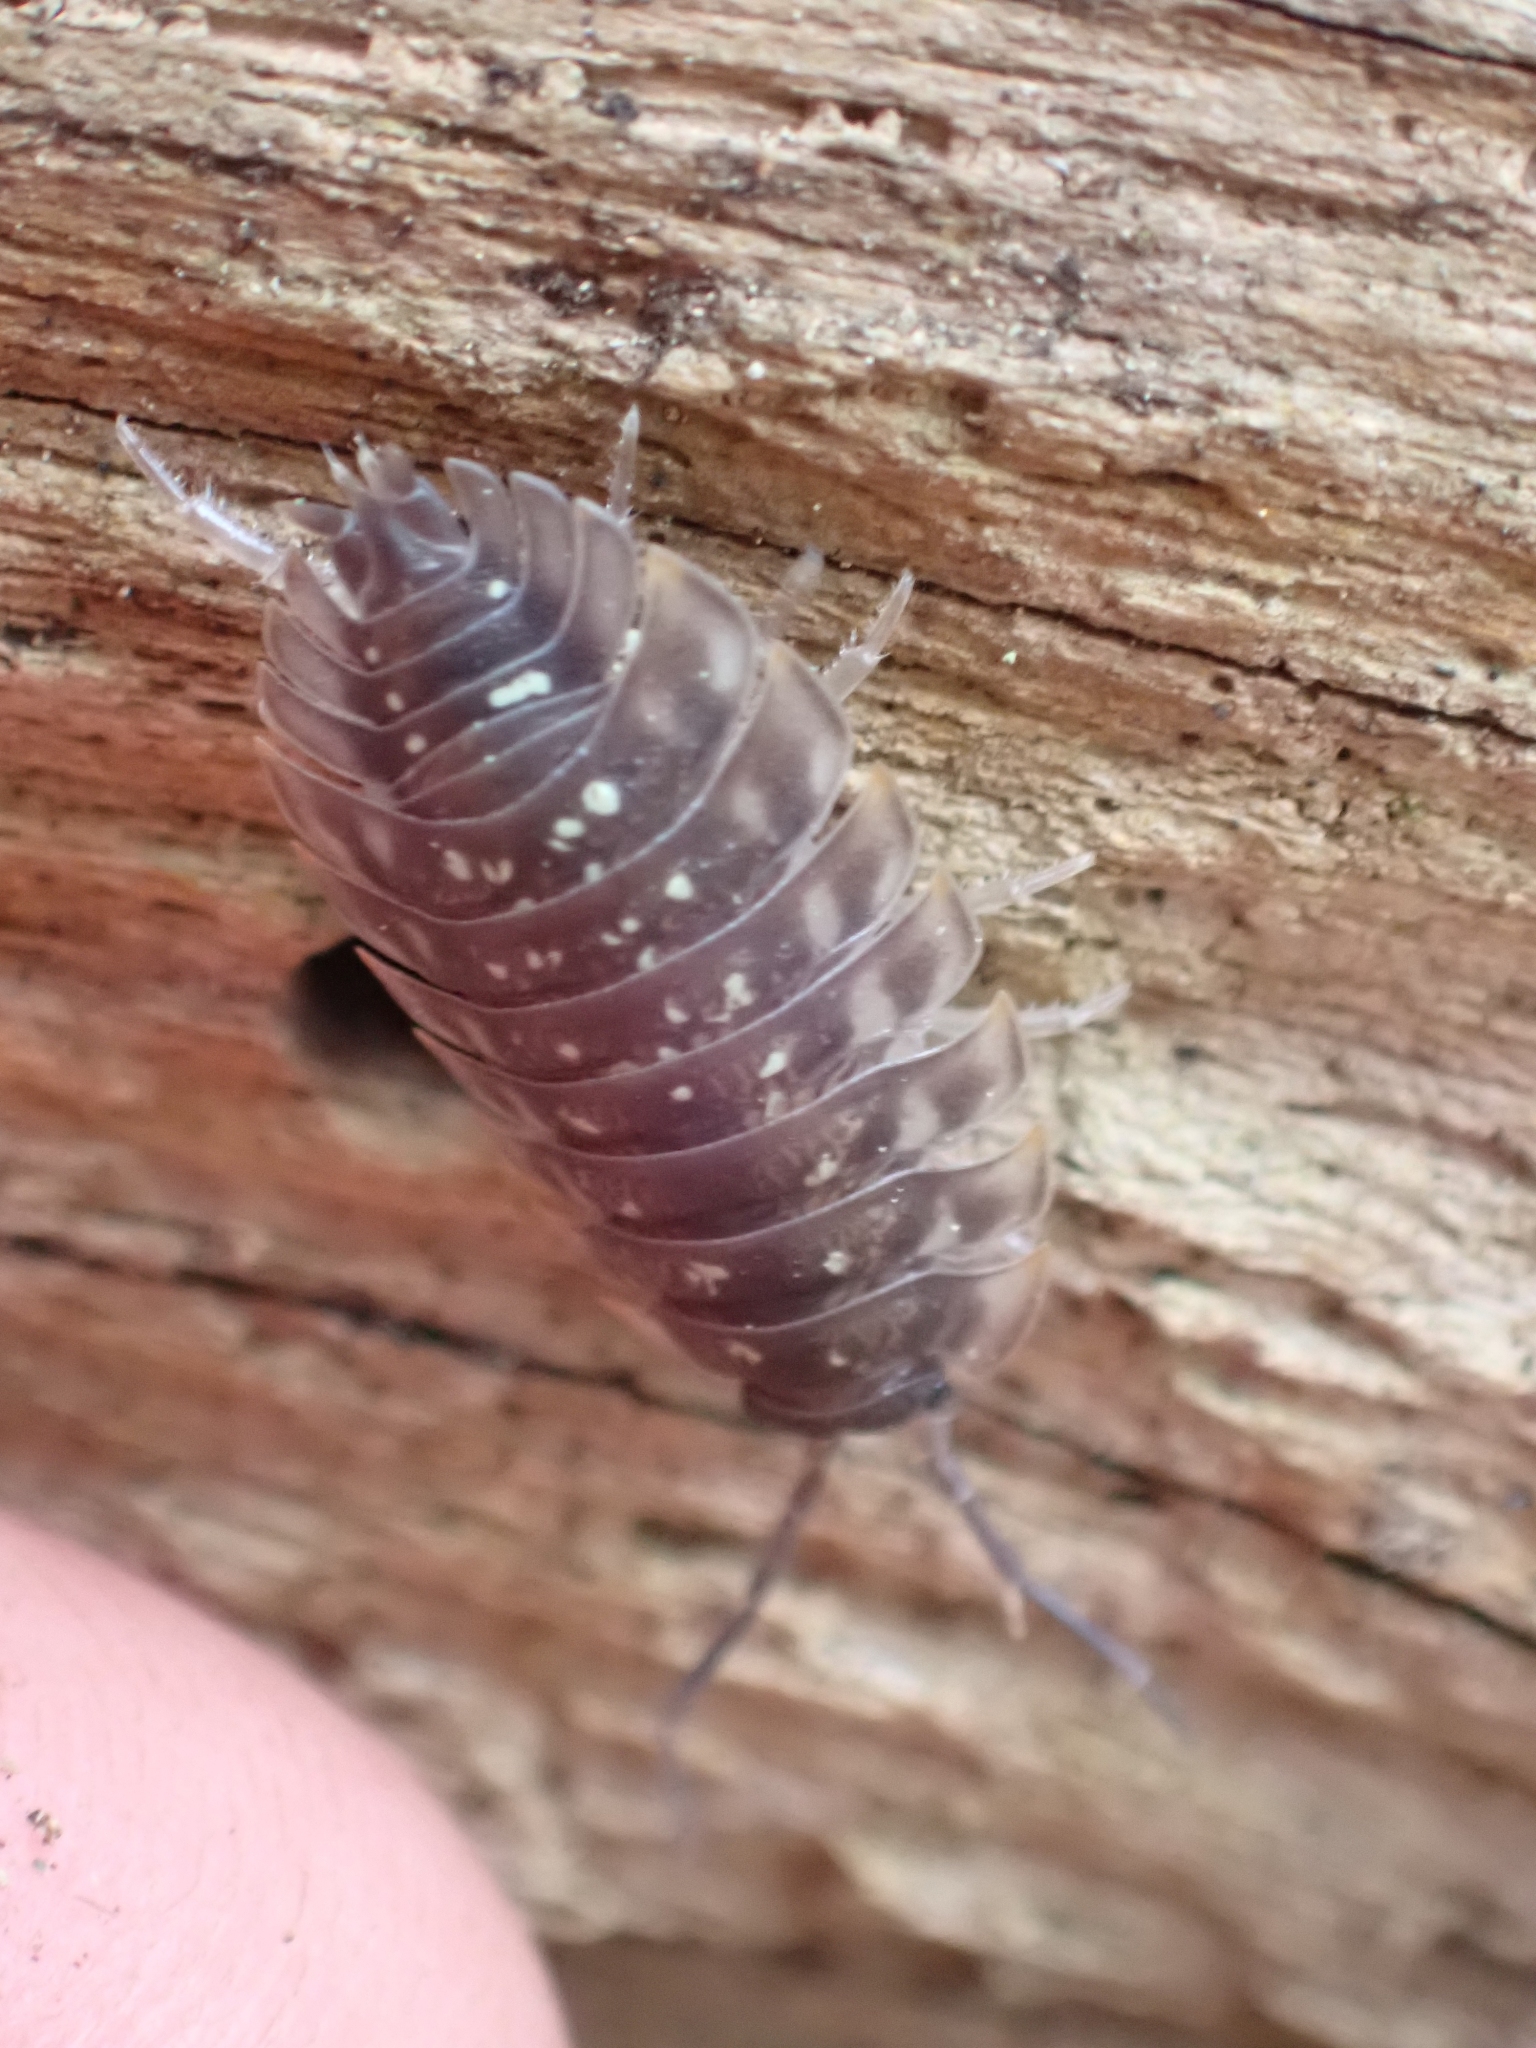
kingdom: Animalia
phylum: Arthropoda
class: Malacostraca
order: Isopoda
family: Oniscidae
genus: Oniscus
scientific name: Oniscus asellus
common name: Common shiny woodlouse
